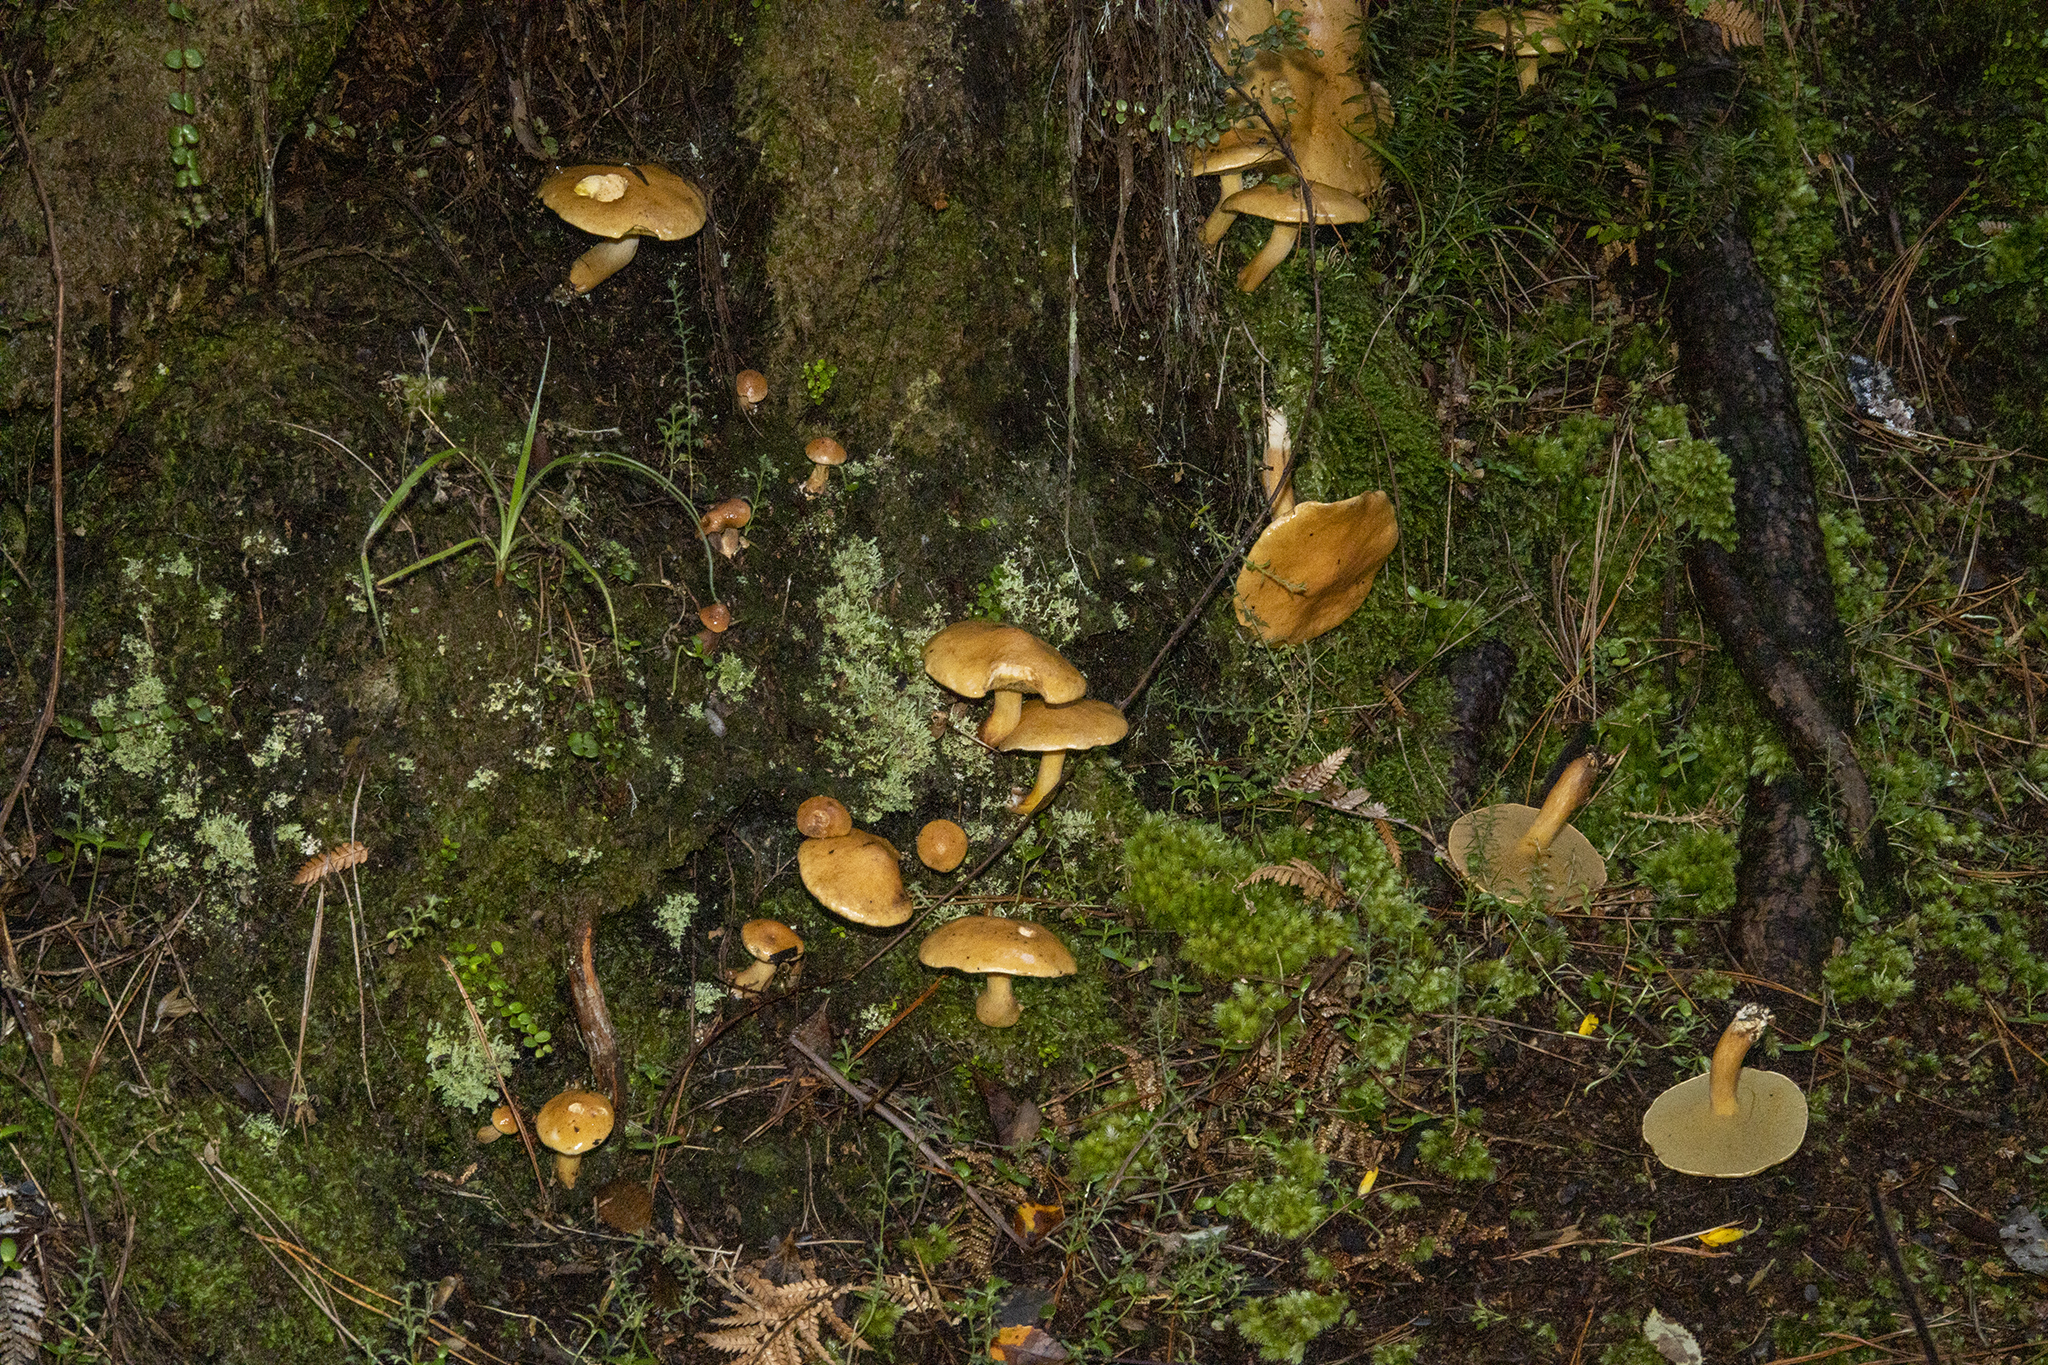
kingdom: Fungi
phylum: Basidiomycota
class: Agaricomycetes
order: Boletales
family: Suillaceae
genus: Suillus
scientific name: Suillus bovinus
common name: Bovine bolete
